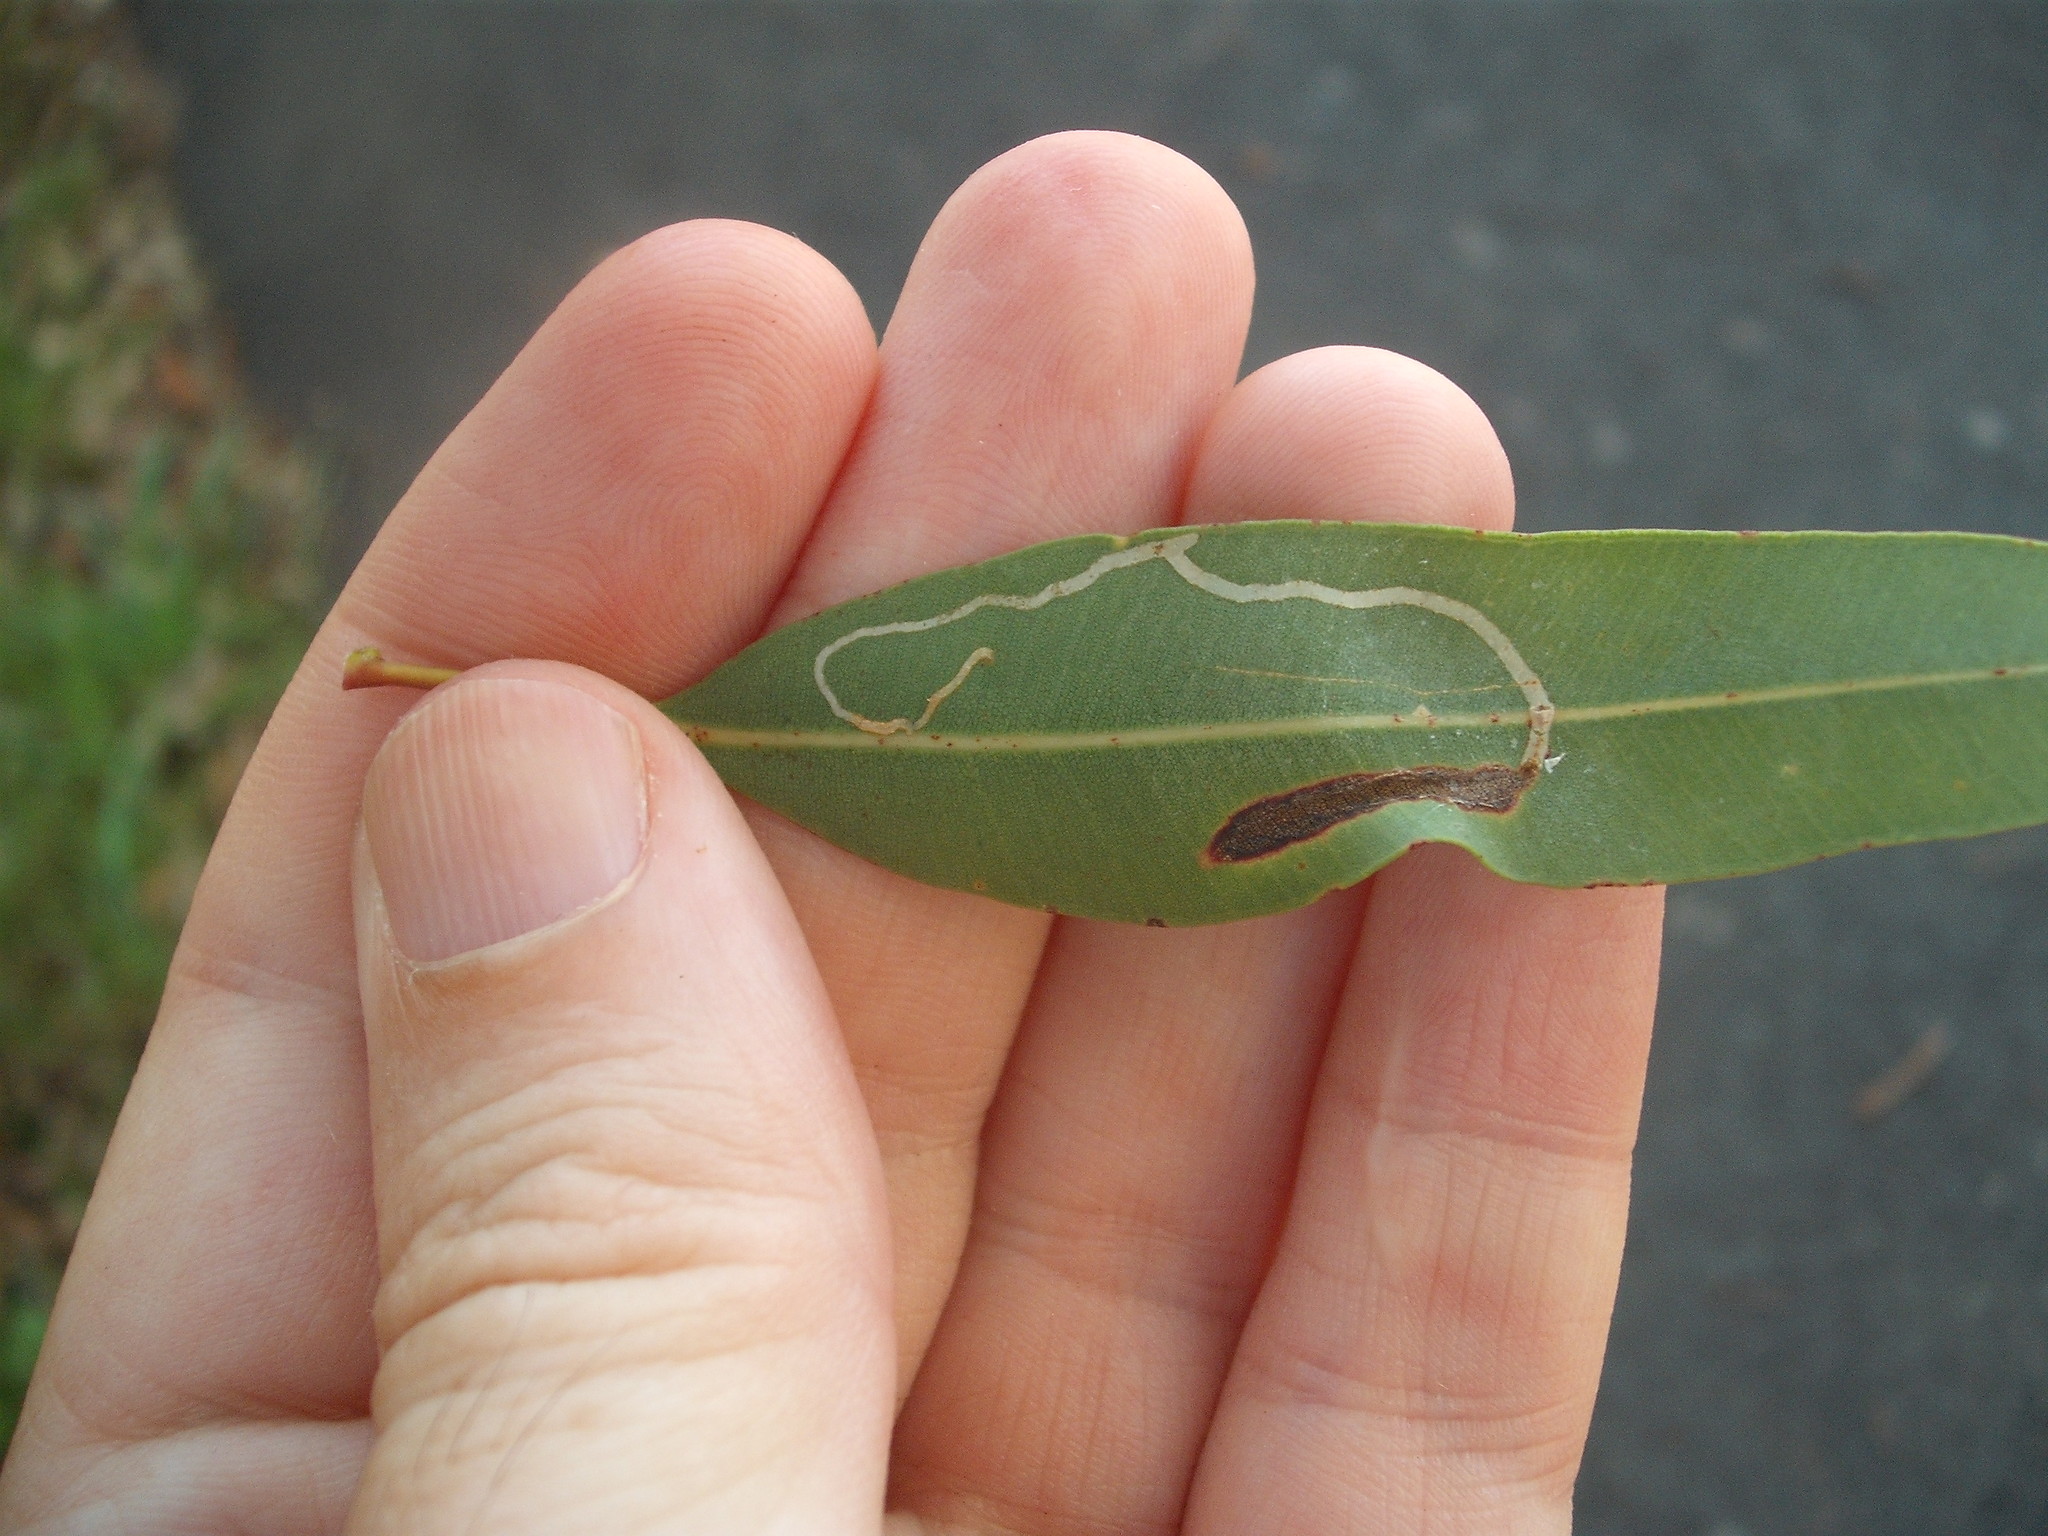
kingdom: Animalia
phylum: Arthropoda
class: Insecta
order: Lepidoptera
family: Gracillariidae
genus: Macarostola
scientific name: Macarostola ida
